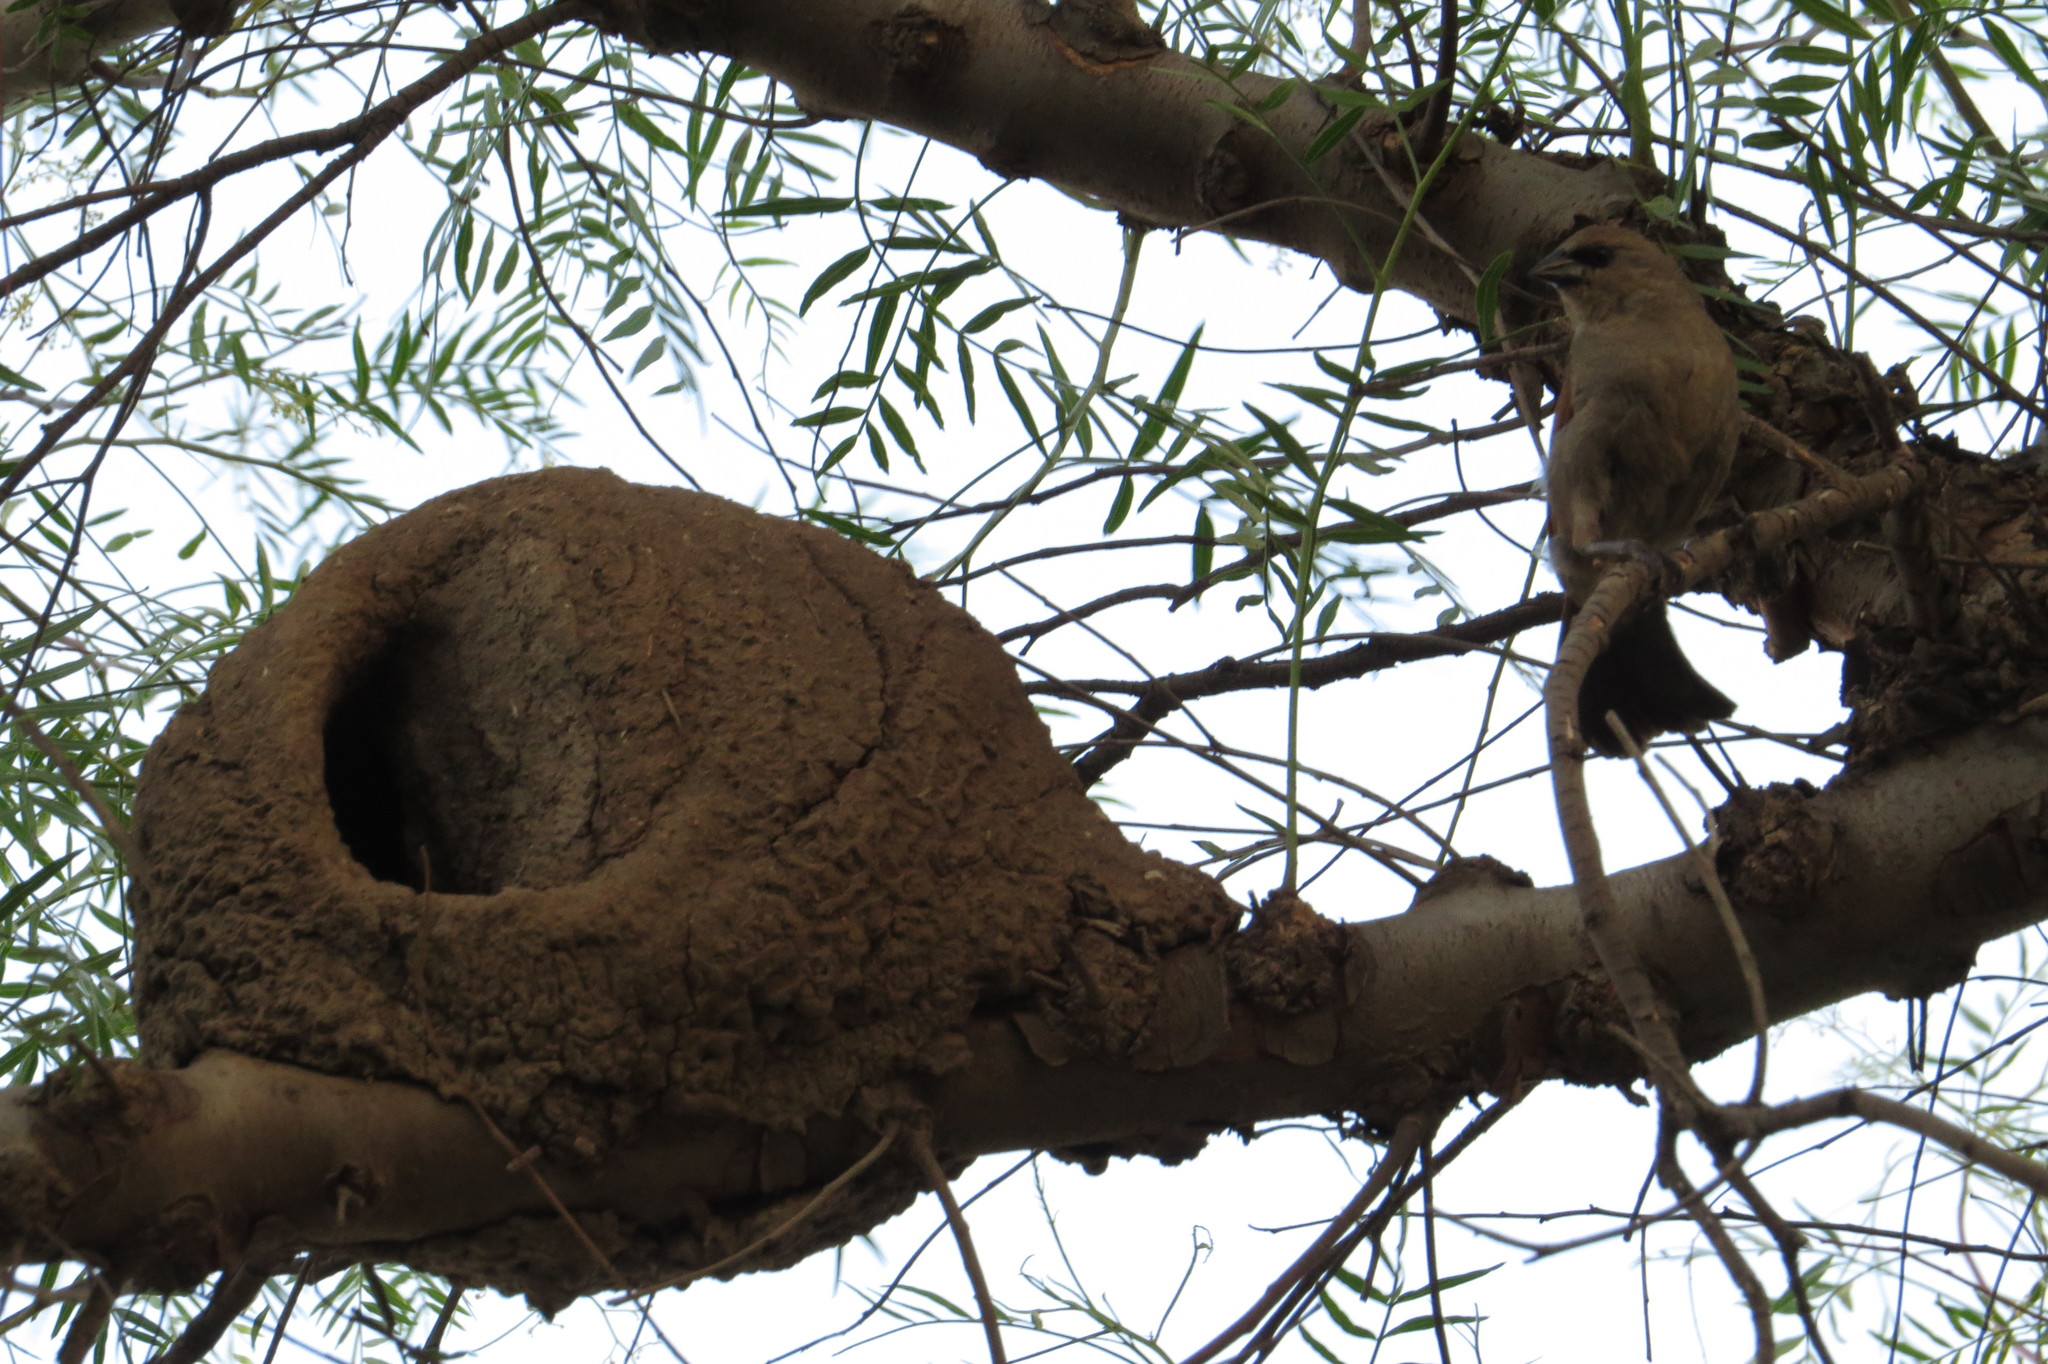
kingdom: Animalia
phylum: Chordata
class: Aves
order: Passeriformes
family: Furnariidae
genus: Furnarius
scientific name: Furnarius rufus
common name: Rufous hornero
